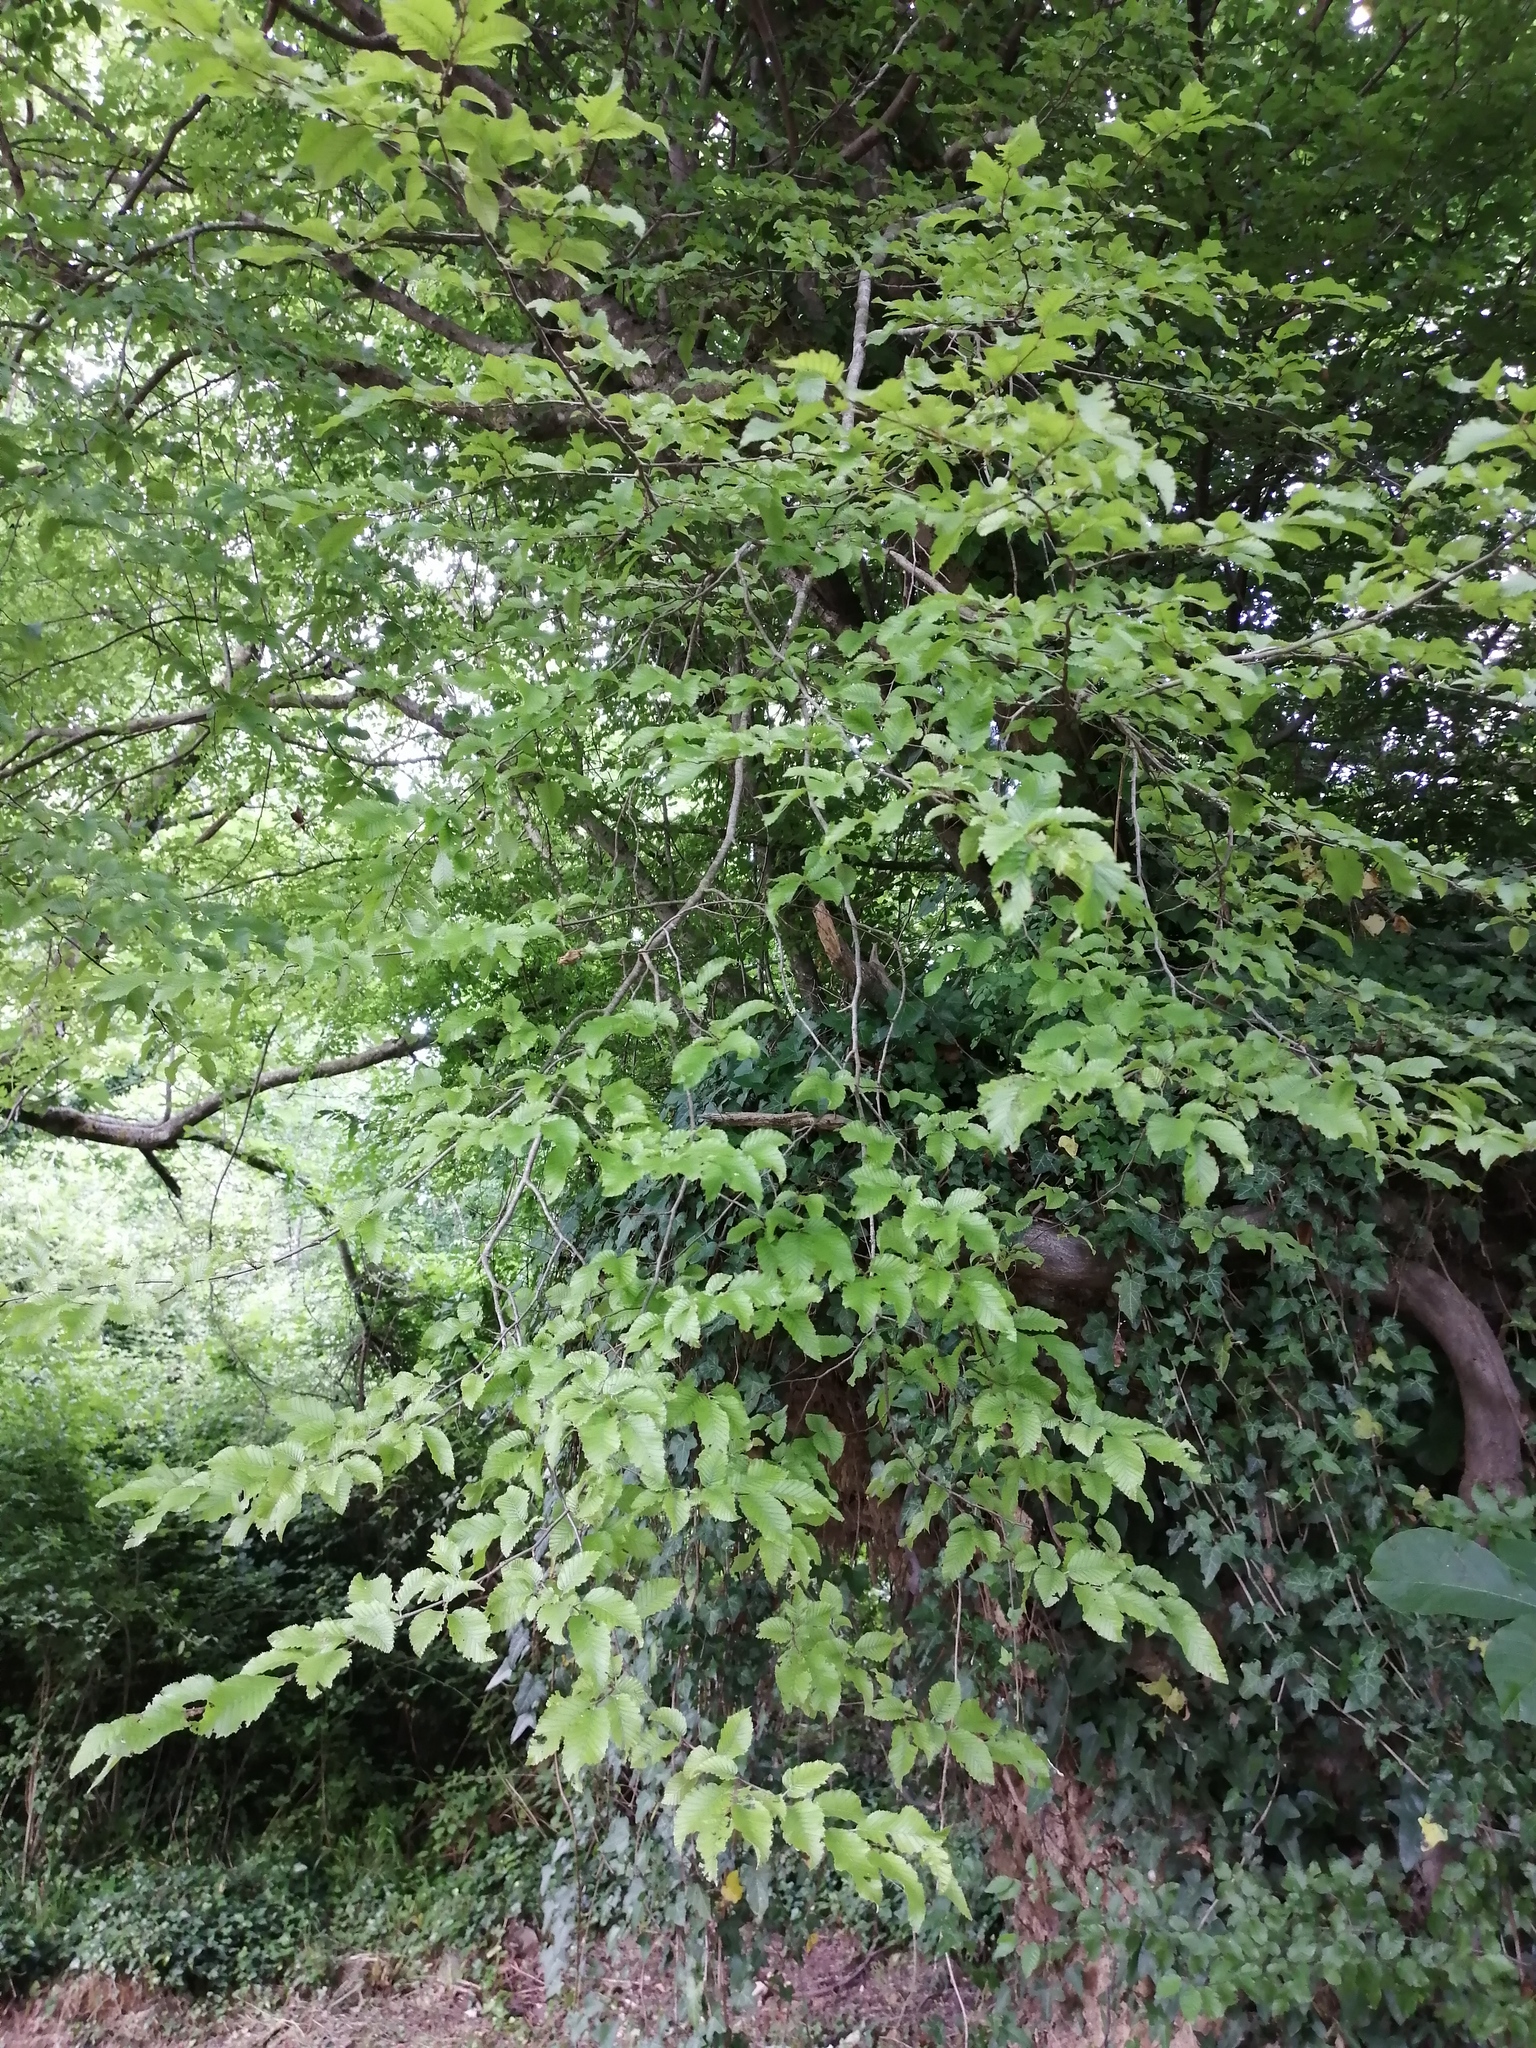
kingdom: Plantae
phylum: Tracheophyta
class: Magnoliopsida
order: Fagales
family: Betulaceae
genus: Carpinus
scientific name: Carpinus orientalis
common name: Eastern hornbeam
